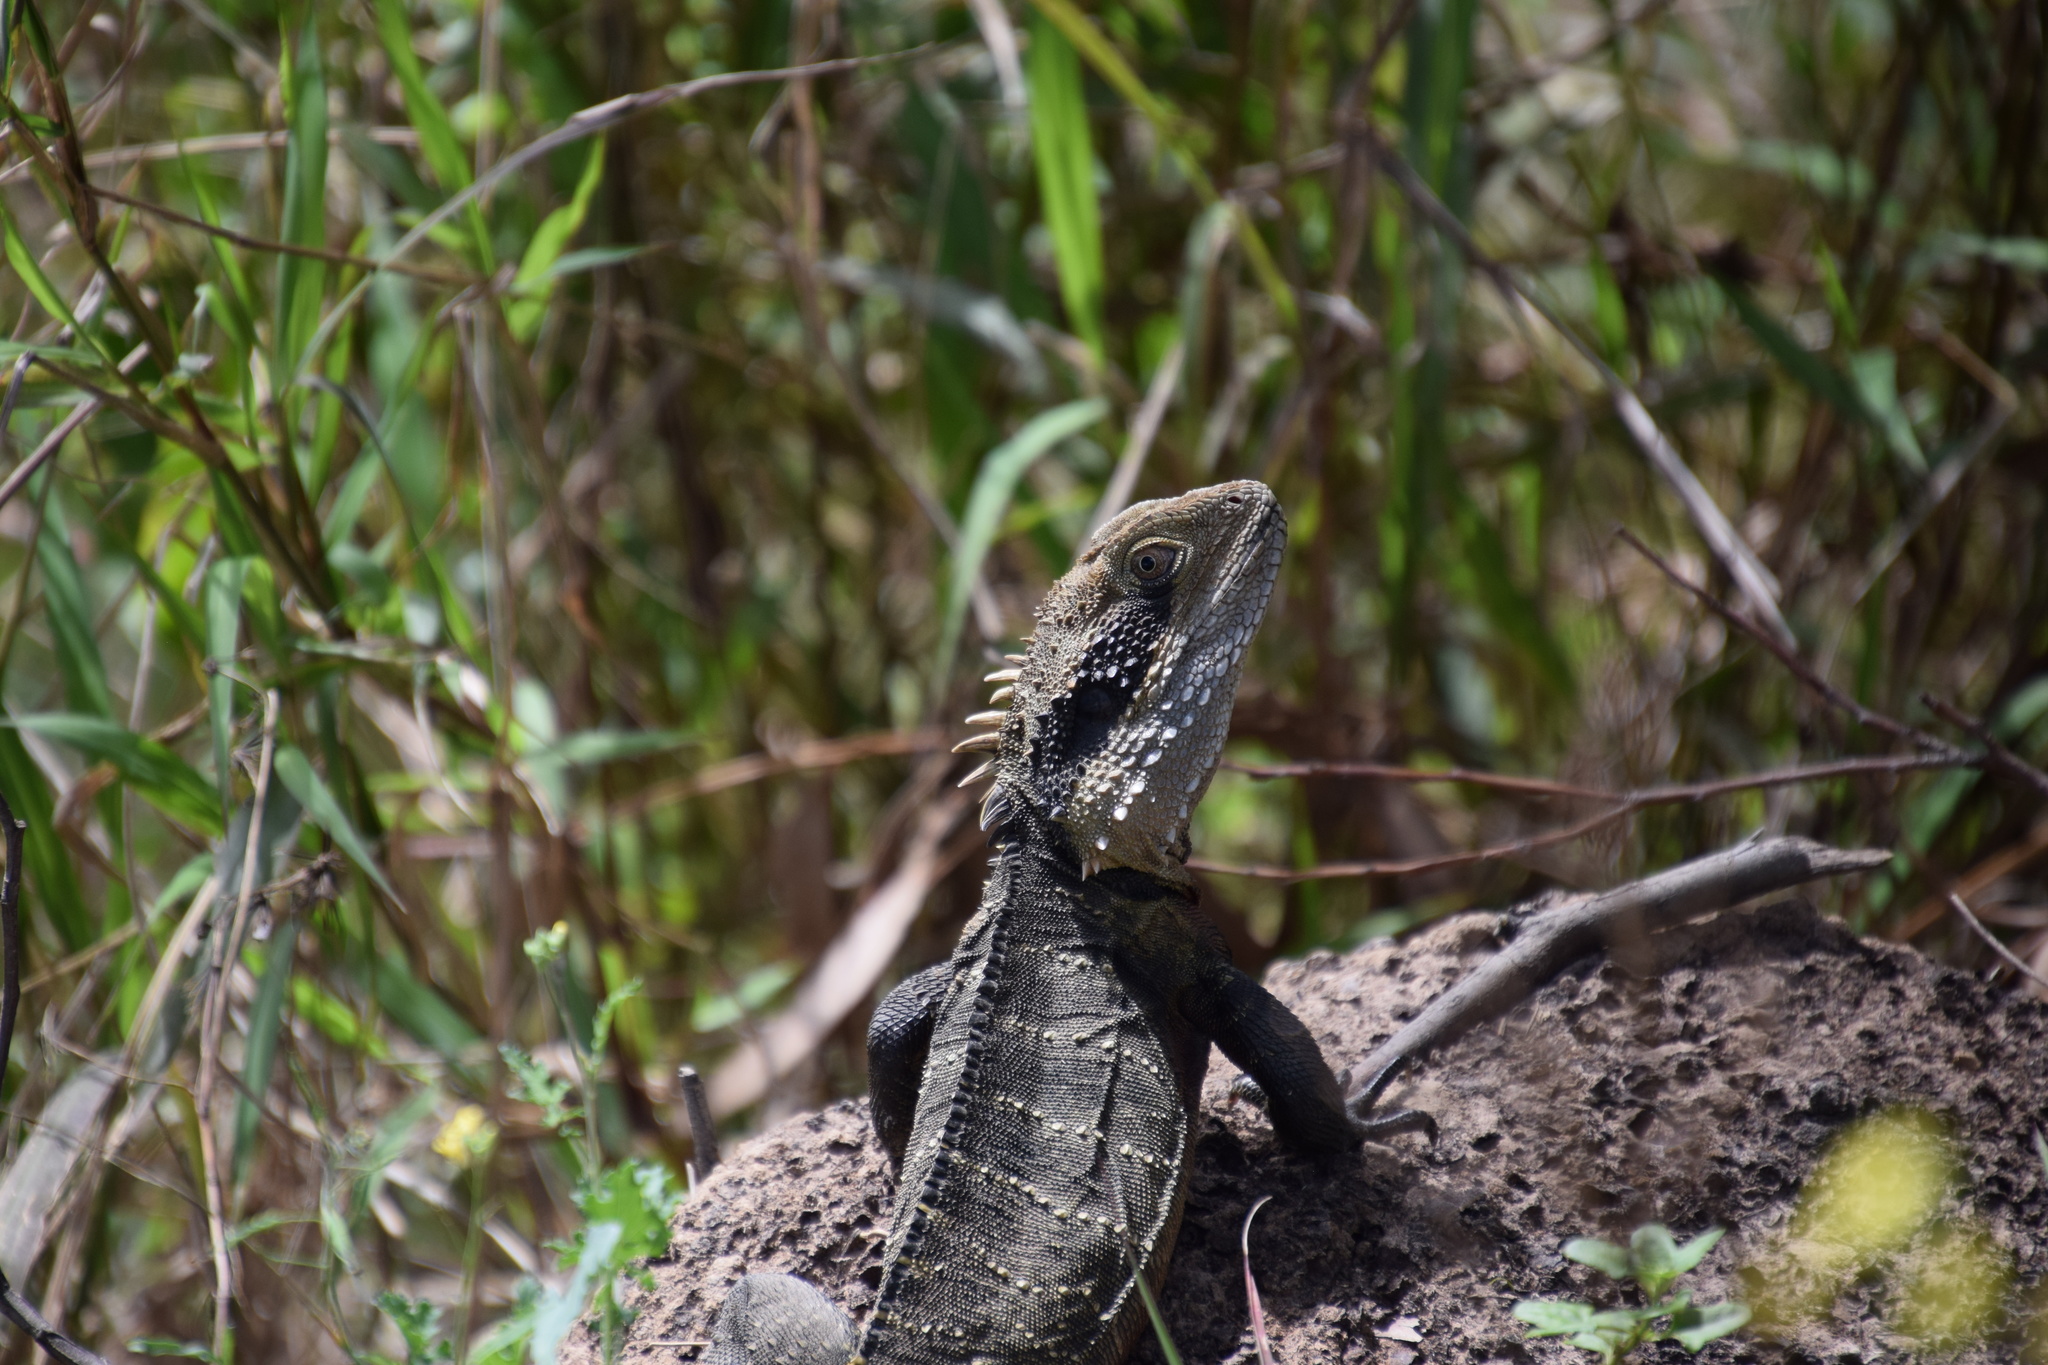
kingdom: Animalia
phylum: Chordata
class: Squamata
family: Agamidae
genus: Intellagama
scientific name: Intellagama lesueurii
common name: Eastern water dragon
